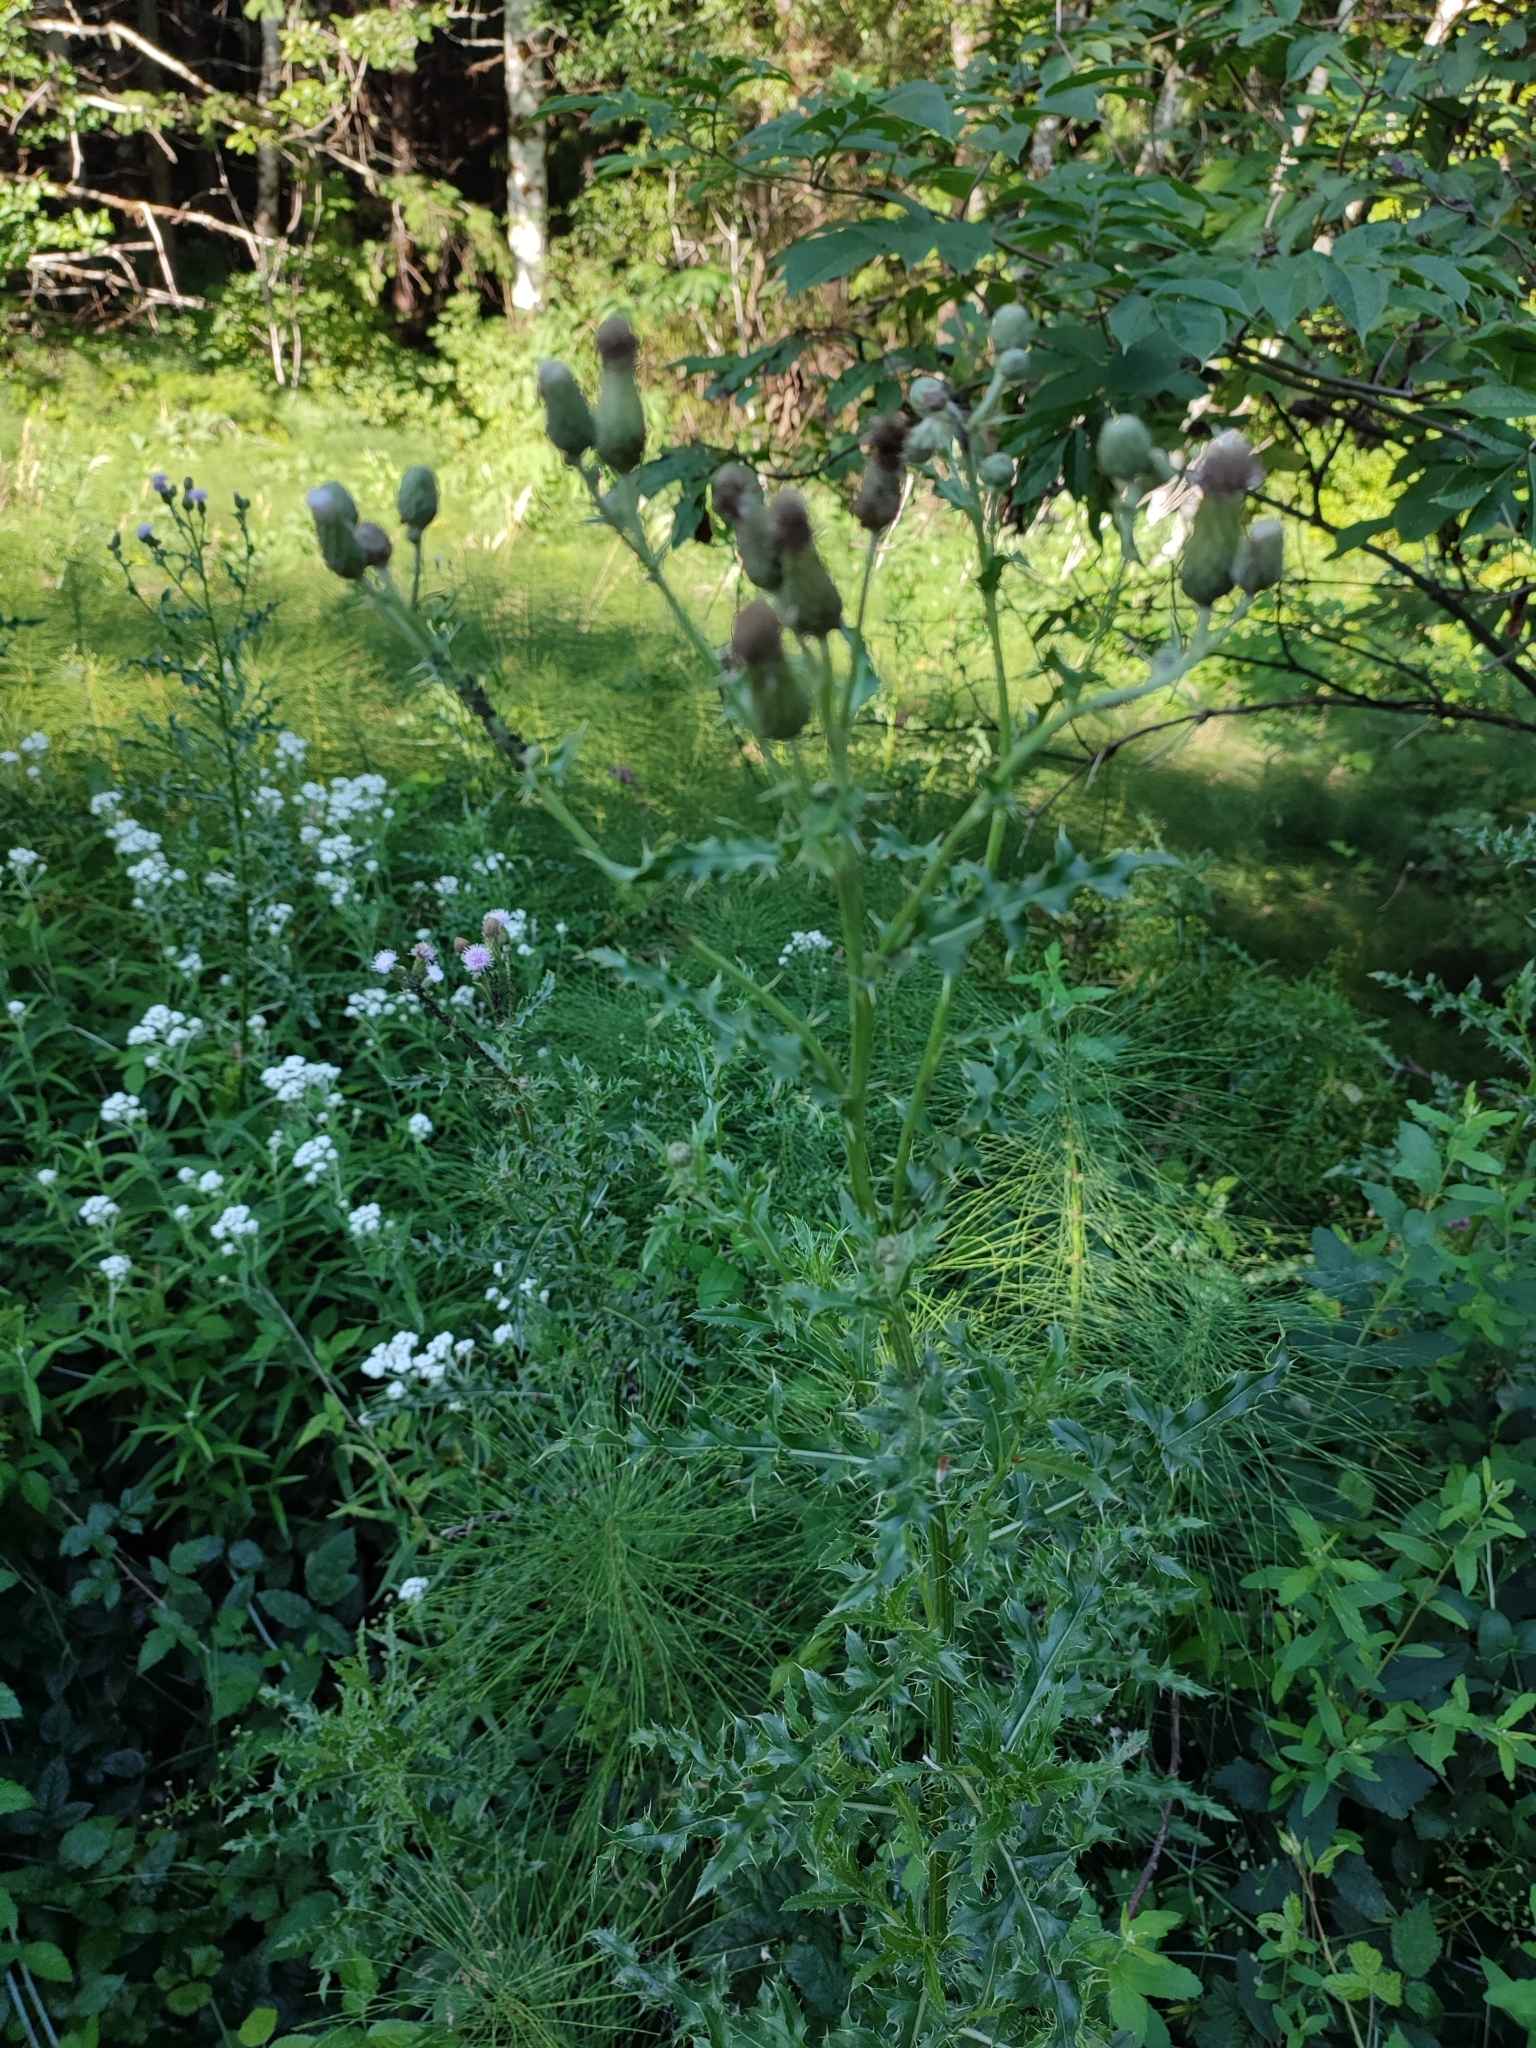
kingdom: Plantae
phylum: Tracheophyta
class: Magnoliopsida
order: Asterales
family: Asteraceae
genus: Cirsium
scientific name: Cirsium arvense
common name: Creeping thistle
